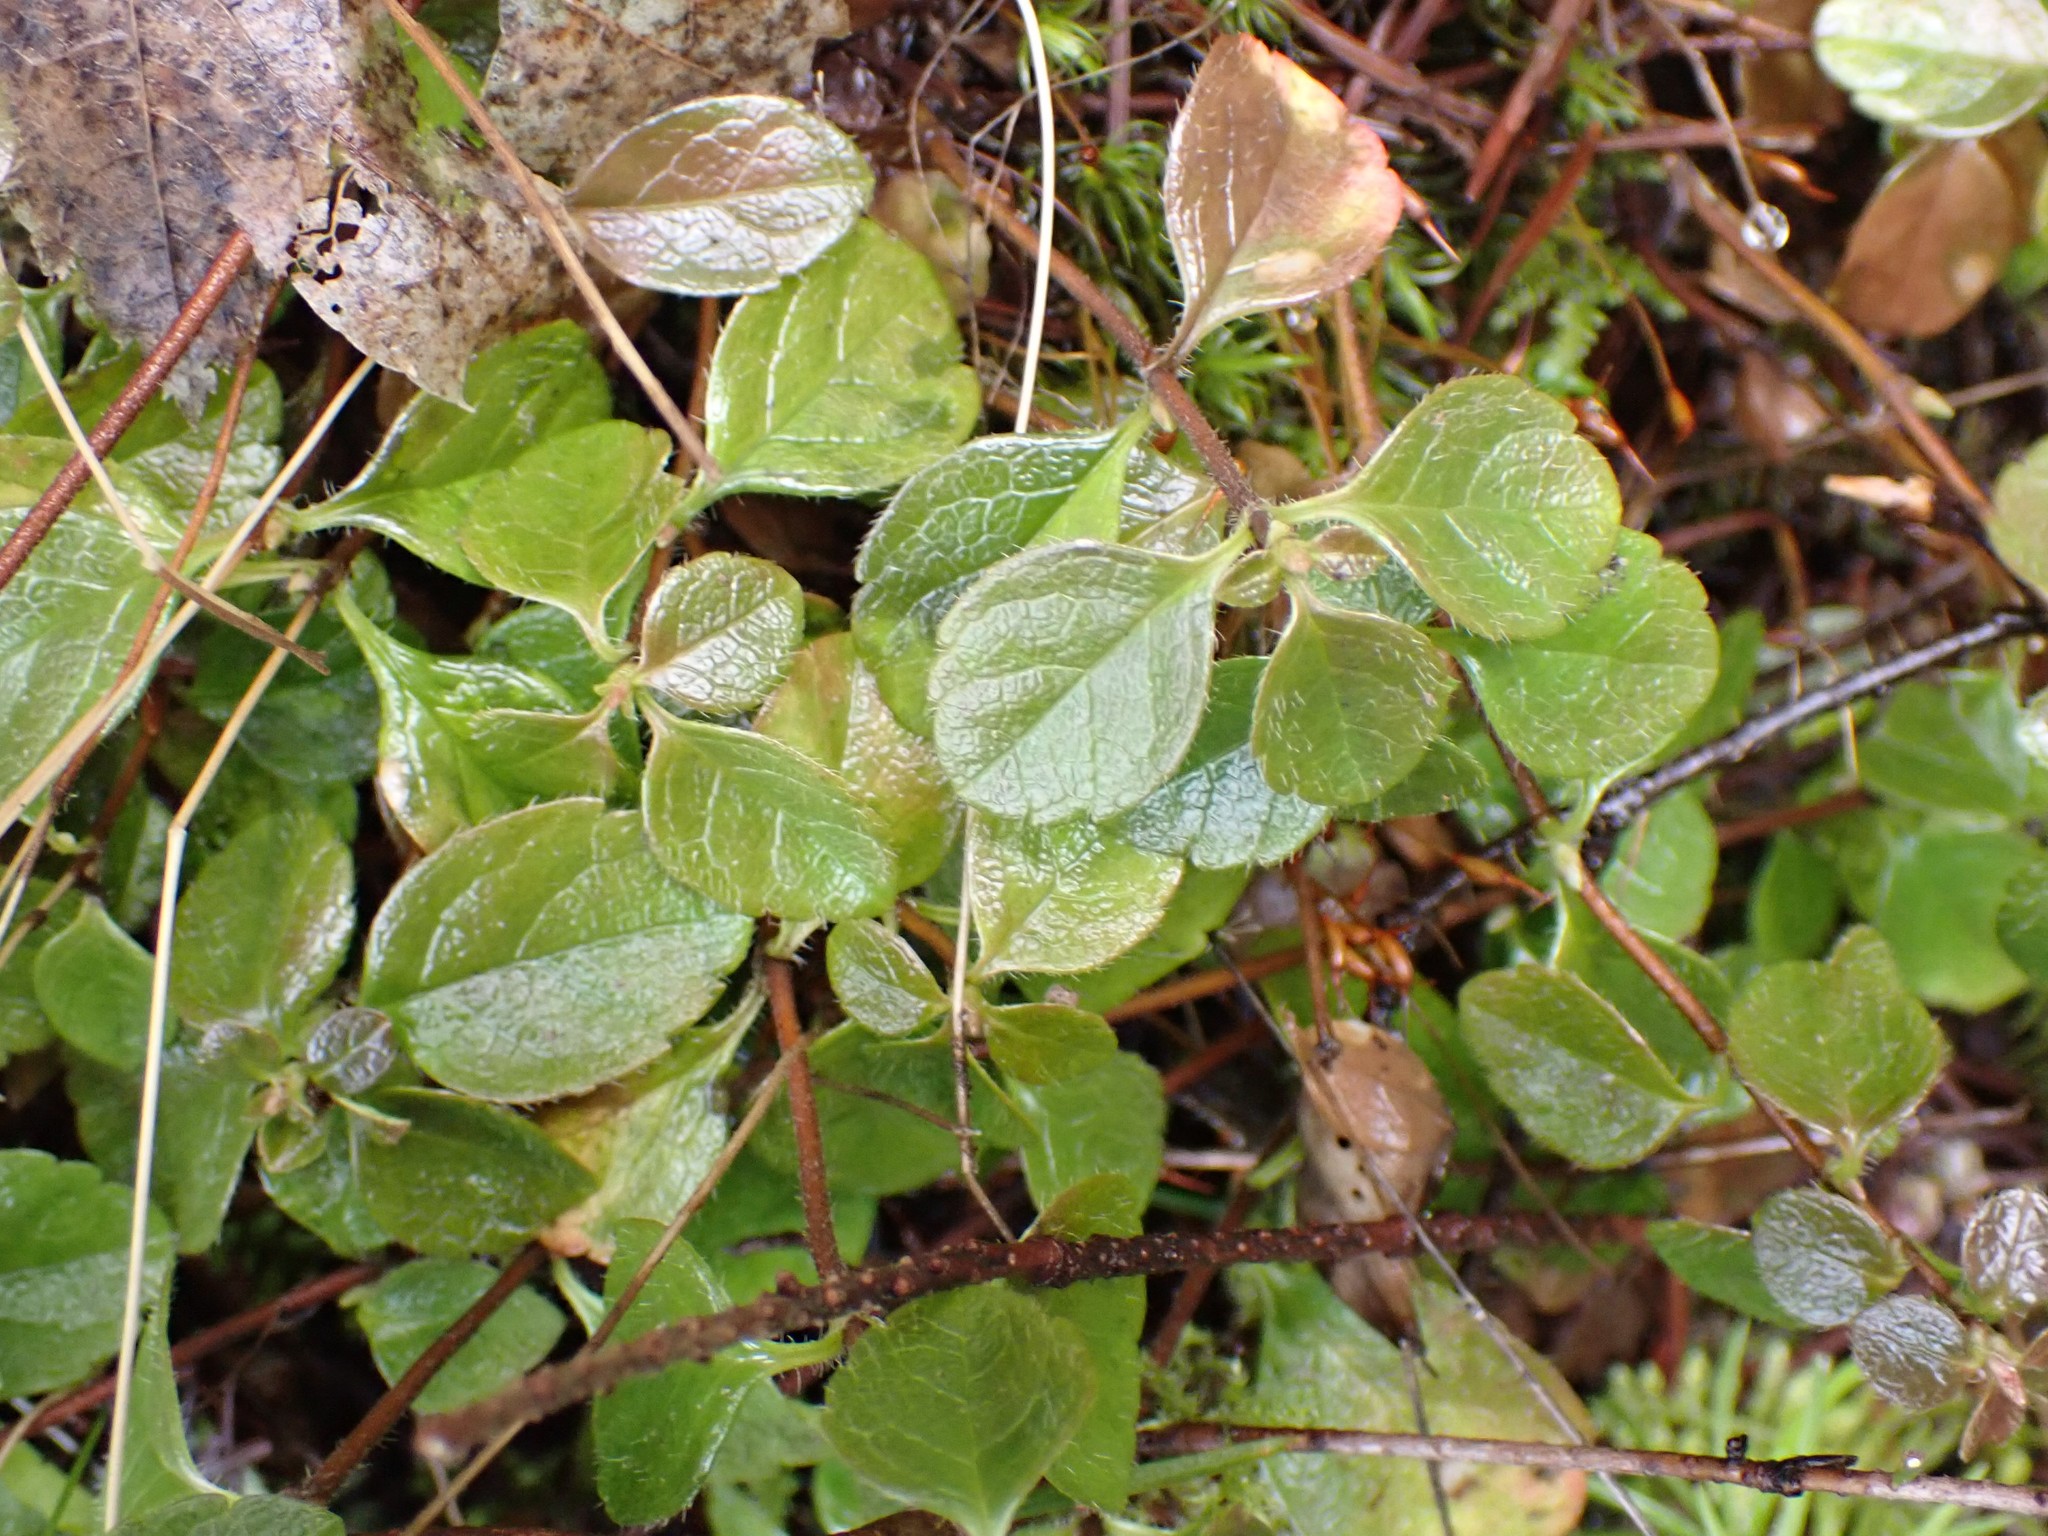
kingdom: Plantae
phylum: Tracheophyta
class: Magnoliopsida
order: Dipsacales
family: Caprifoliaceae
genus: Linnaea
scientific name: Linnaea borealis
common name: Twinflower
